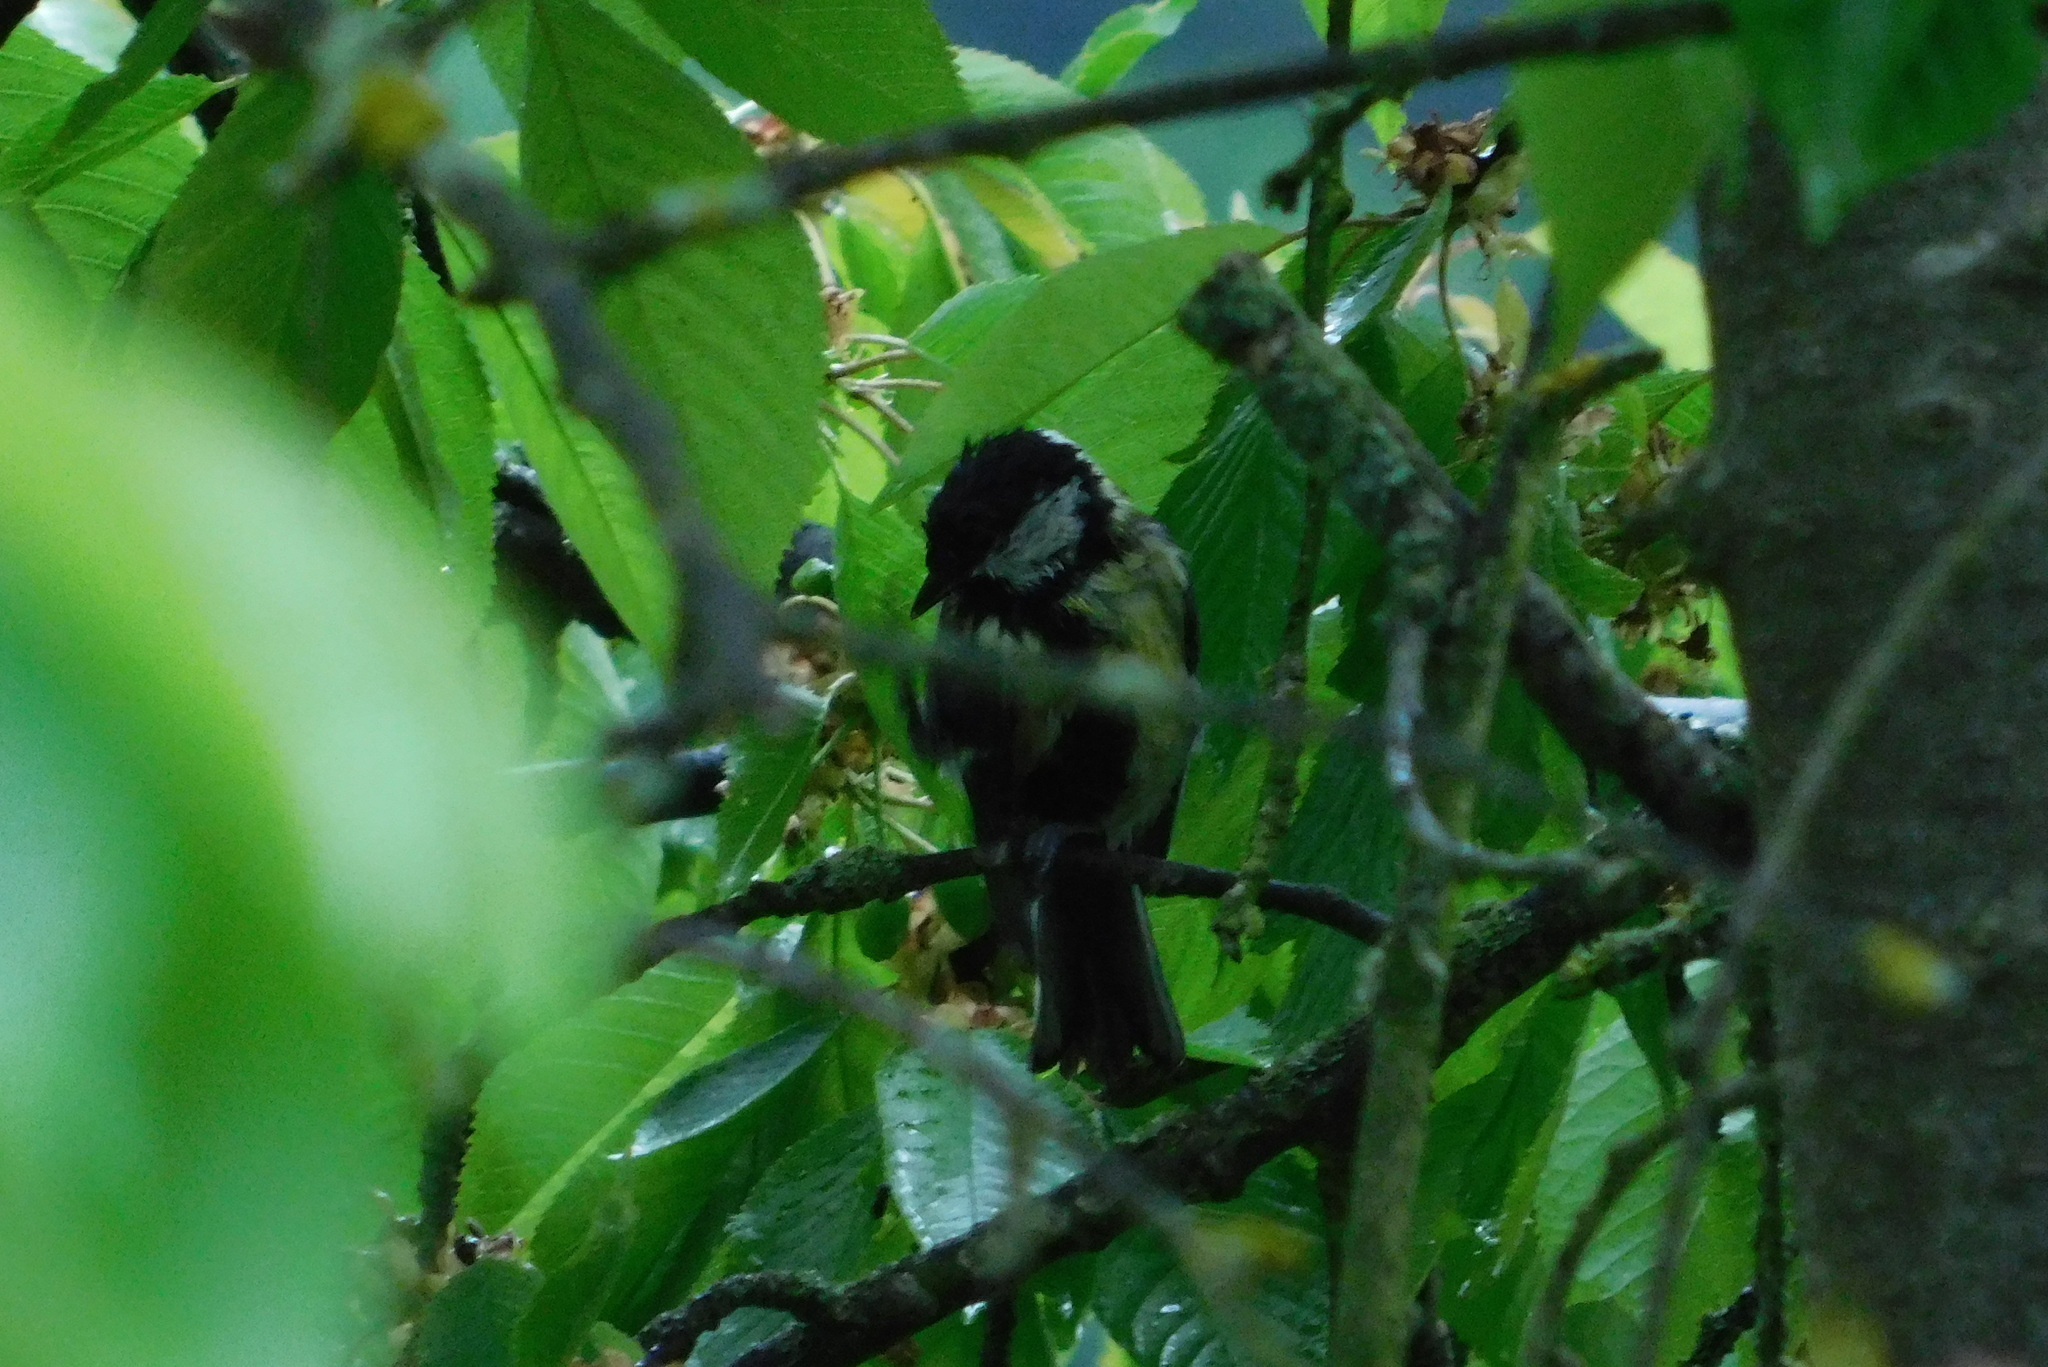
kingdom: Animalia
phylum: Chordata
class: Aves
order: Passeriformes
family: Paridae
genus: Parus
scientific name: Parus major
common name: Great tit
